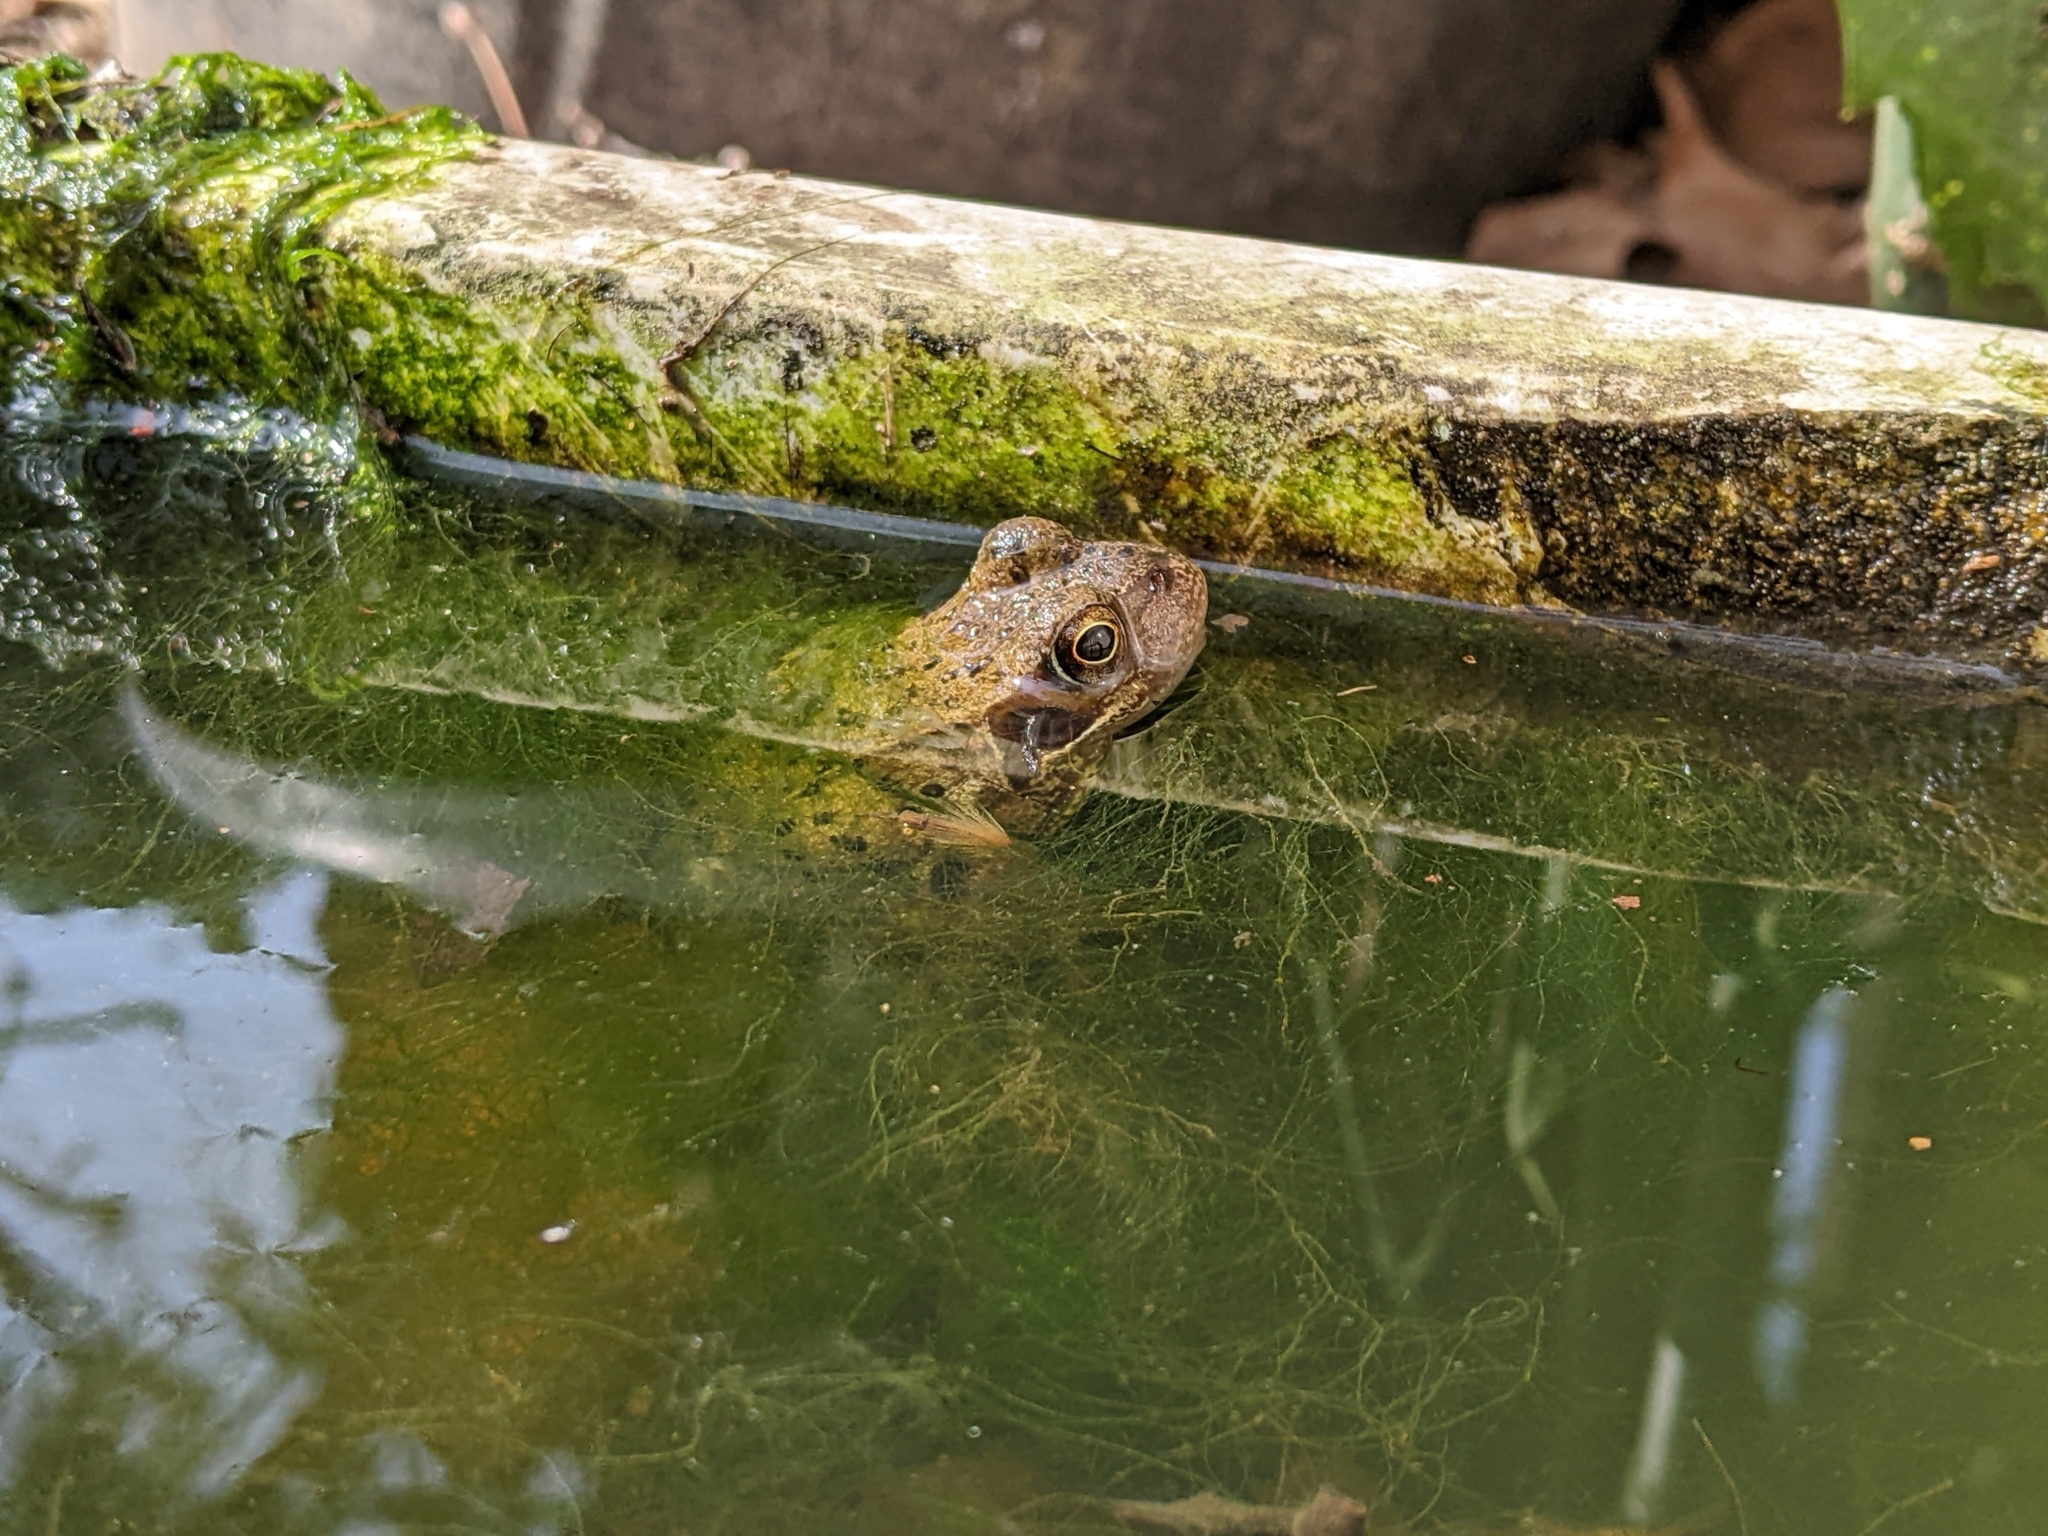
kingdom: Animalia
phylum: Chordata
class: Amphibia
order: Anura
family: Ranidae
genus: Rana
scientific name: Rana temporaria
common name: Common frog
